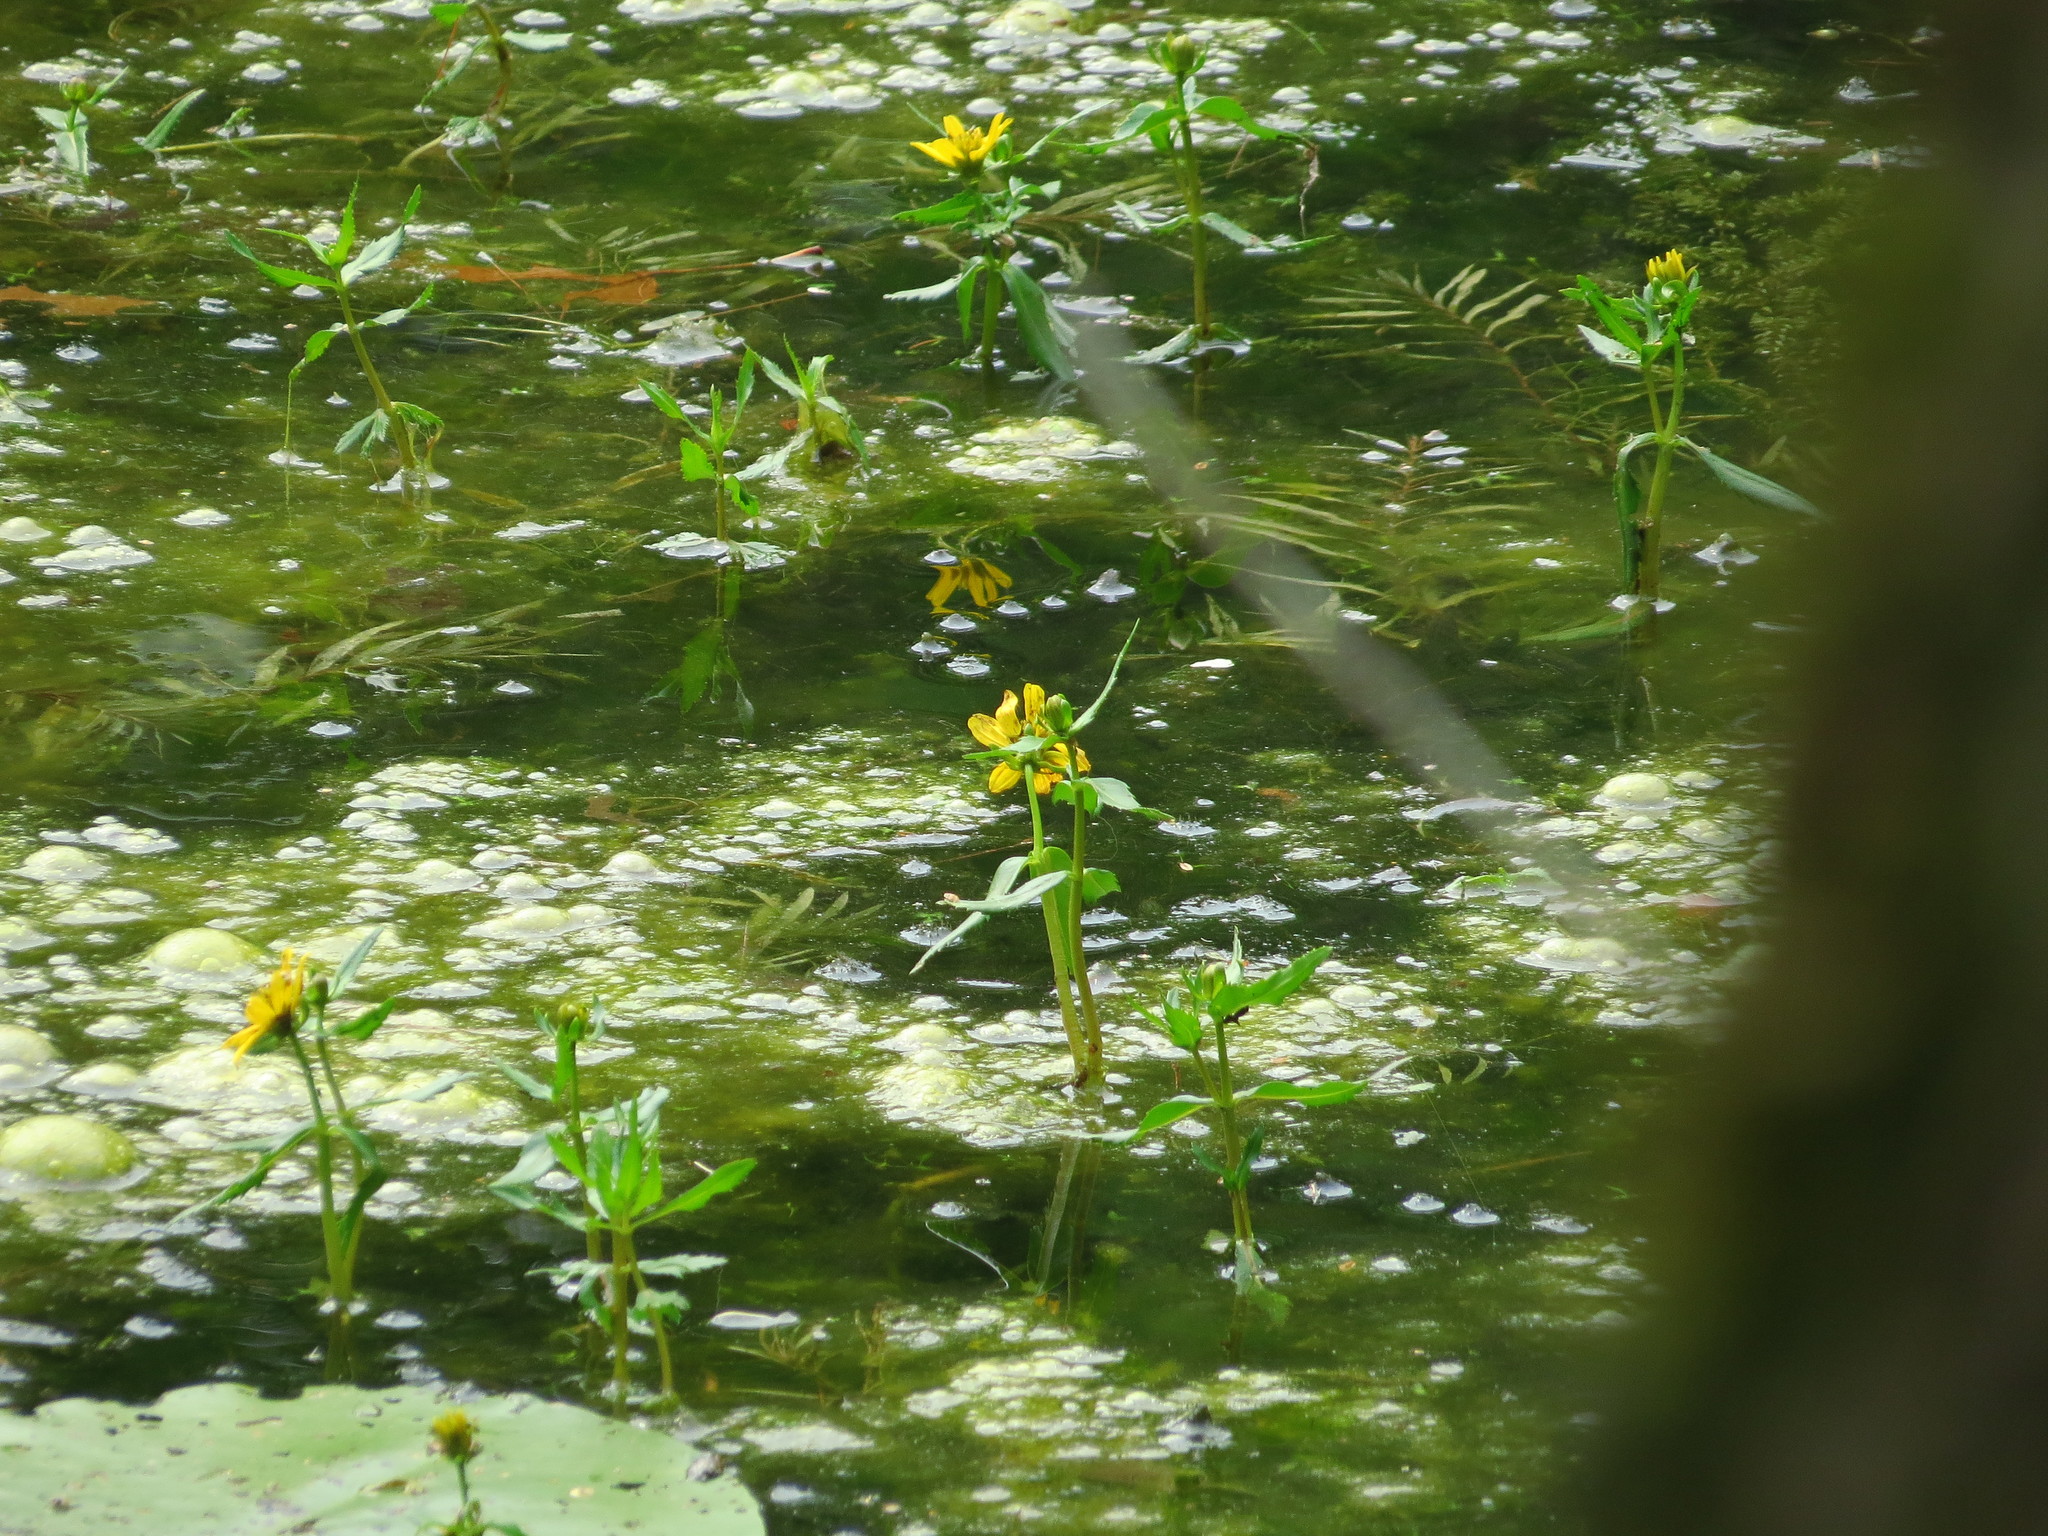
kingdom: Plantae
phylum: Tracheophyta
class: Magnoliopsida
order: Asterales
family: Asteraceae
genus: Bidens
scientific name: Bidens beckii
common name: Beck's beggarticks
